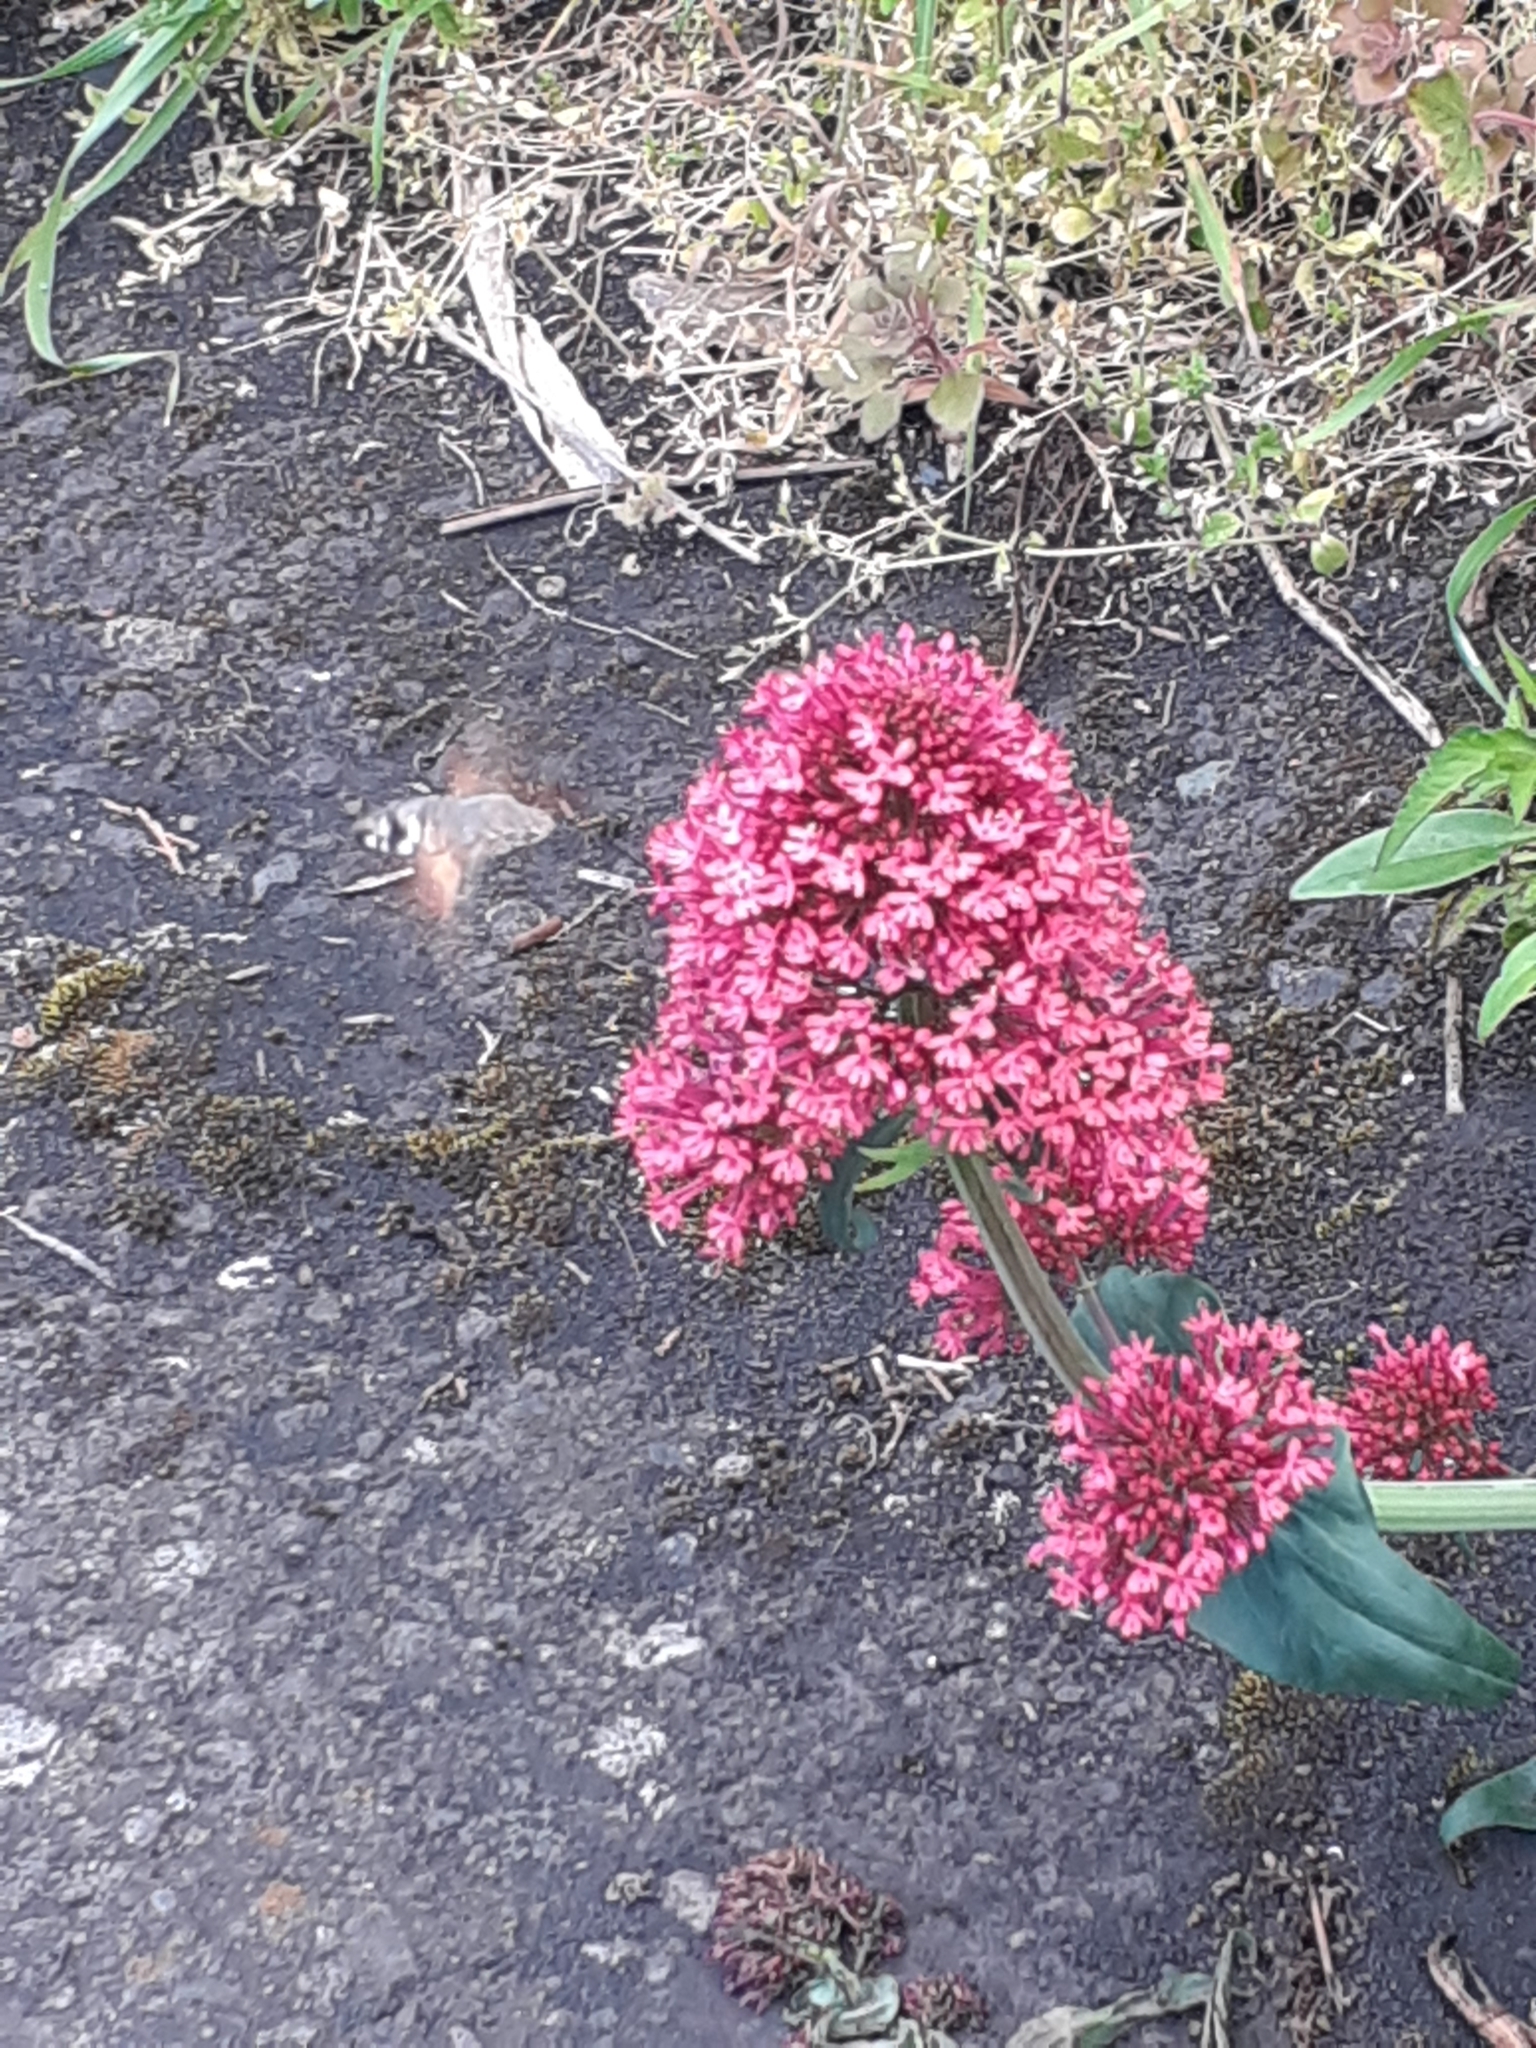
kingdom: Animalia
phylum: Arthropoda
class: Insecta
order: Lepidoptera
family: Sphingidae
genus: Macroglossum
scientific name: Macroglossum stellatarum
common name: Humming-bird hawk-moth
